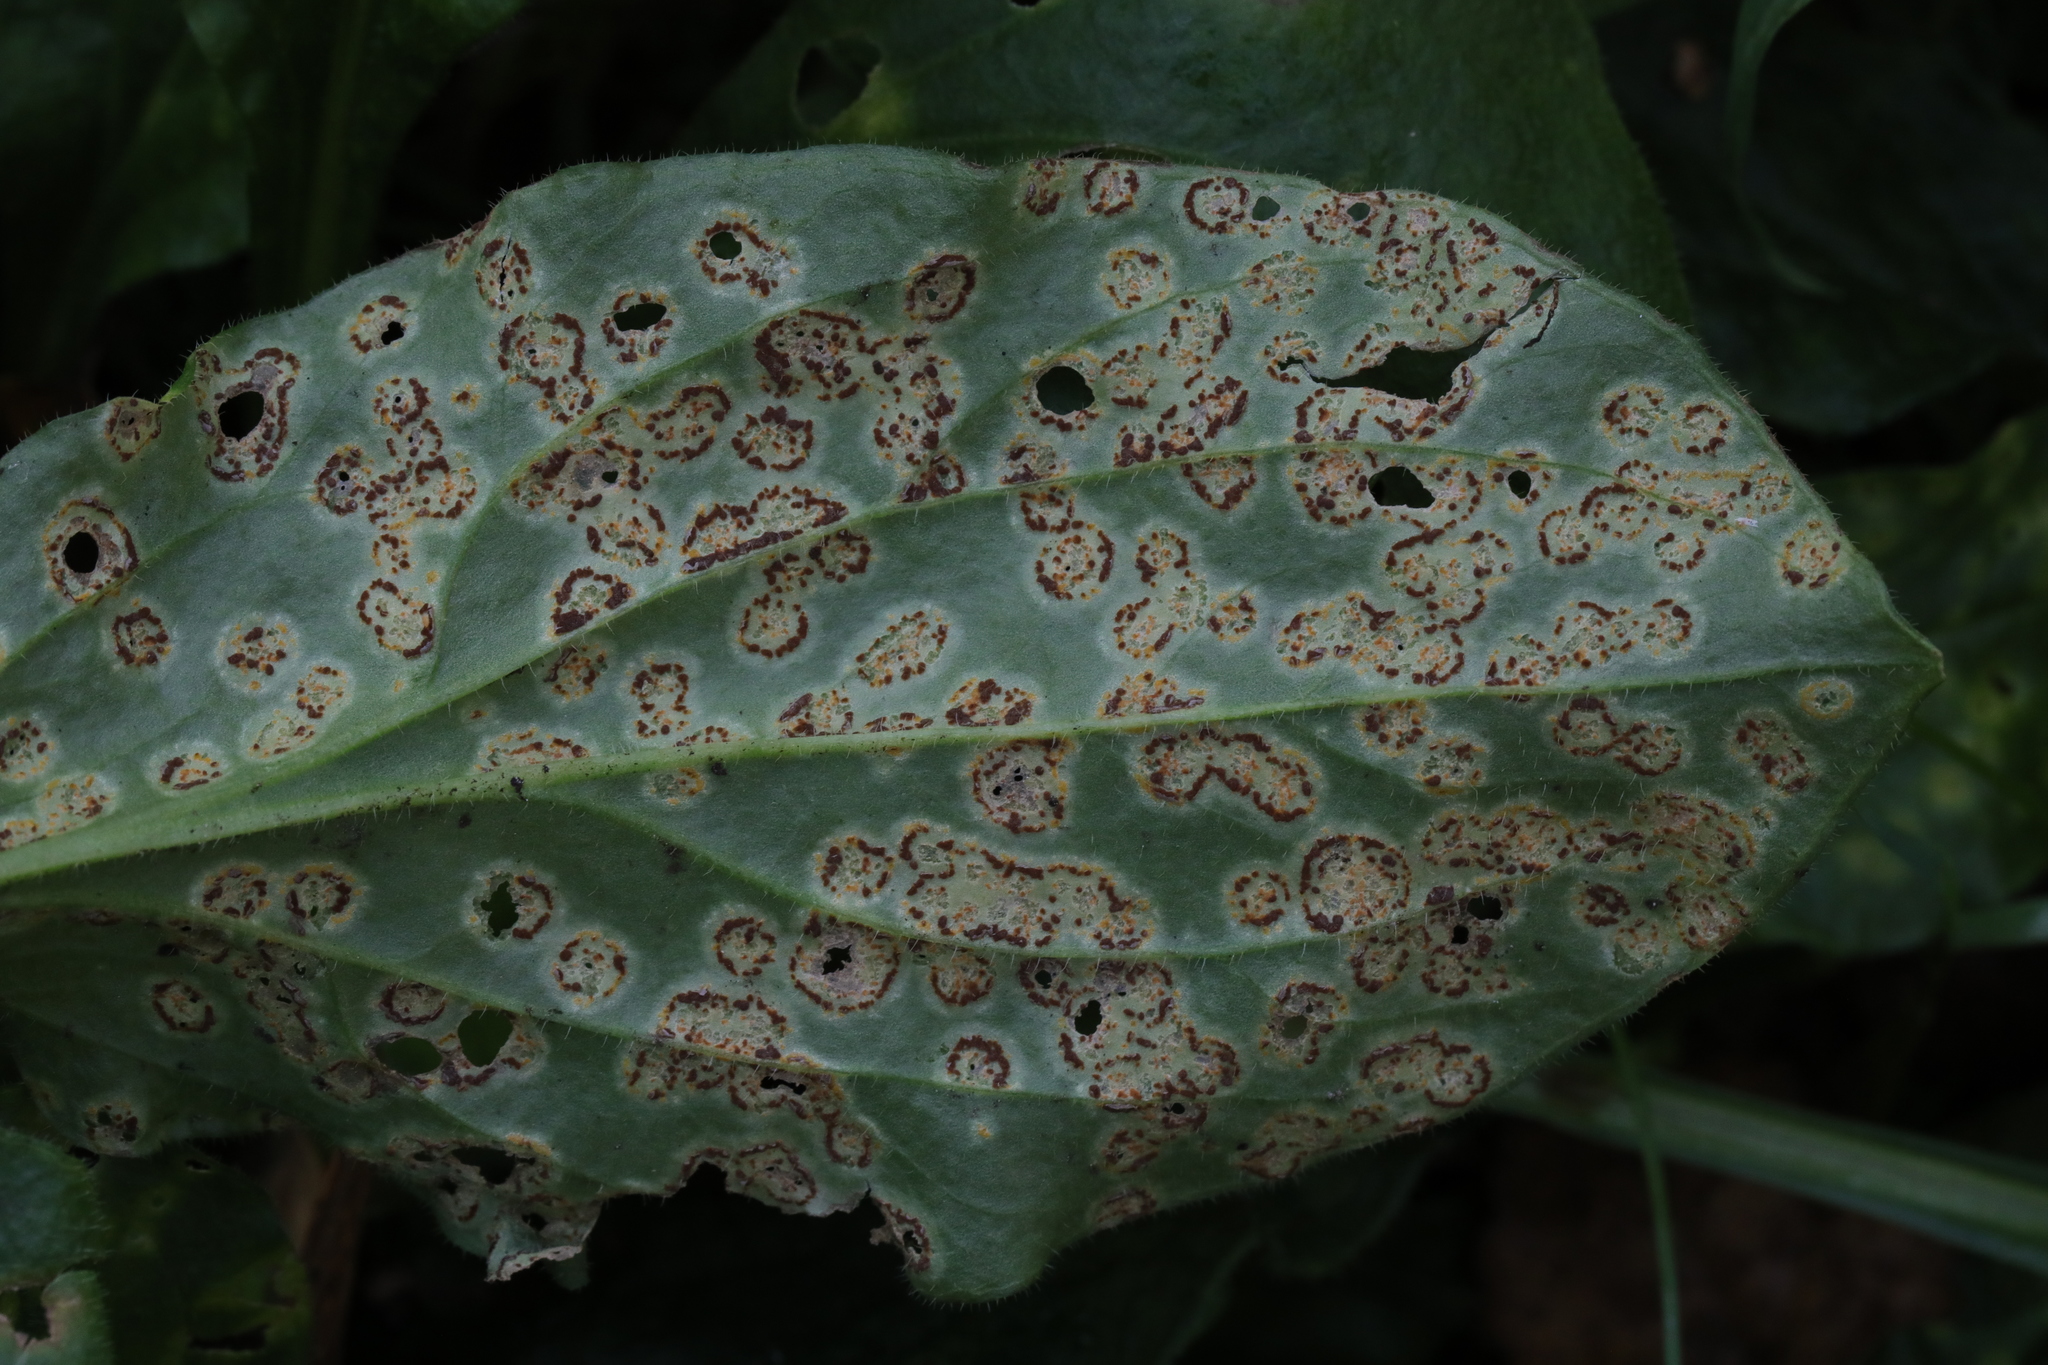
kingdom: Fungi
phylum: Basidiomycota
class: Pucciniomycetes
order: Pucciniales
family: Pucciniaceae
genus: Puccinia
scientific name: Puccinia arenariae
